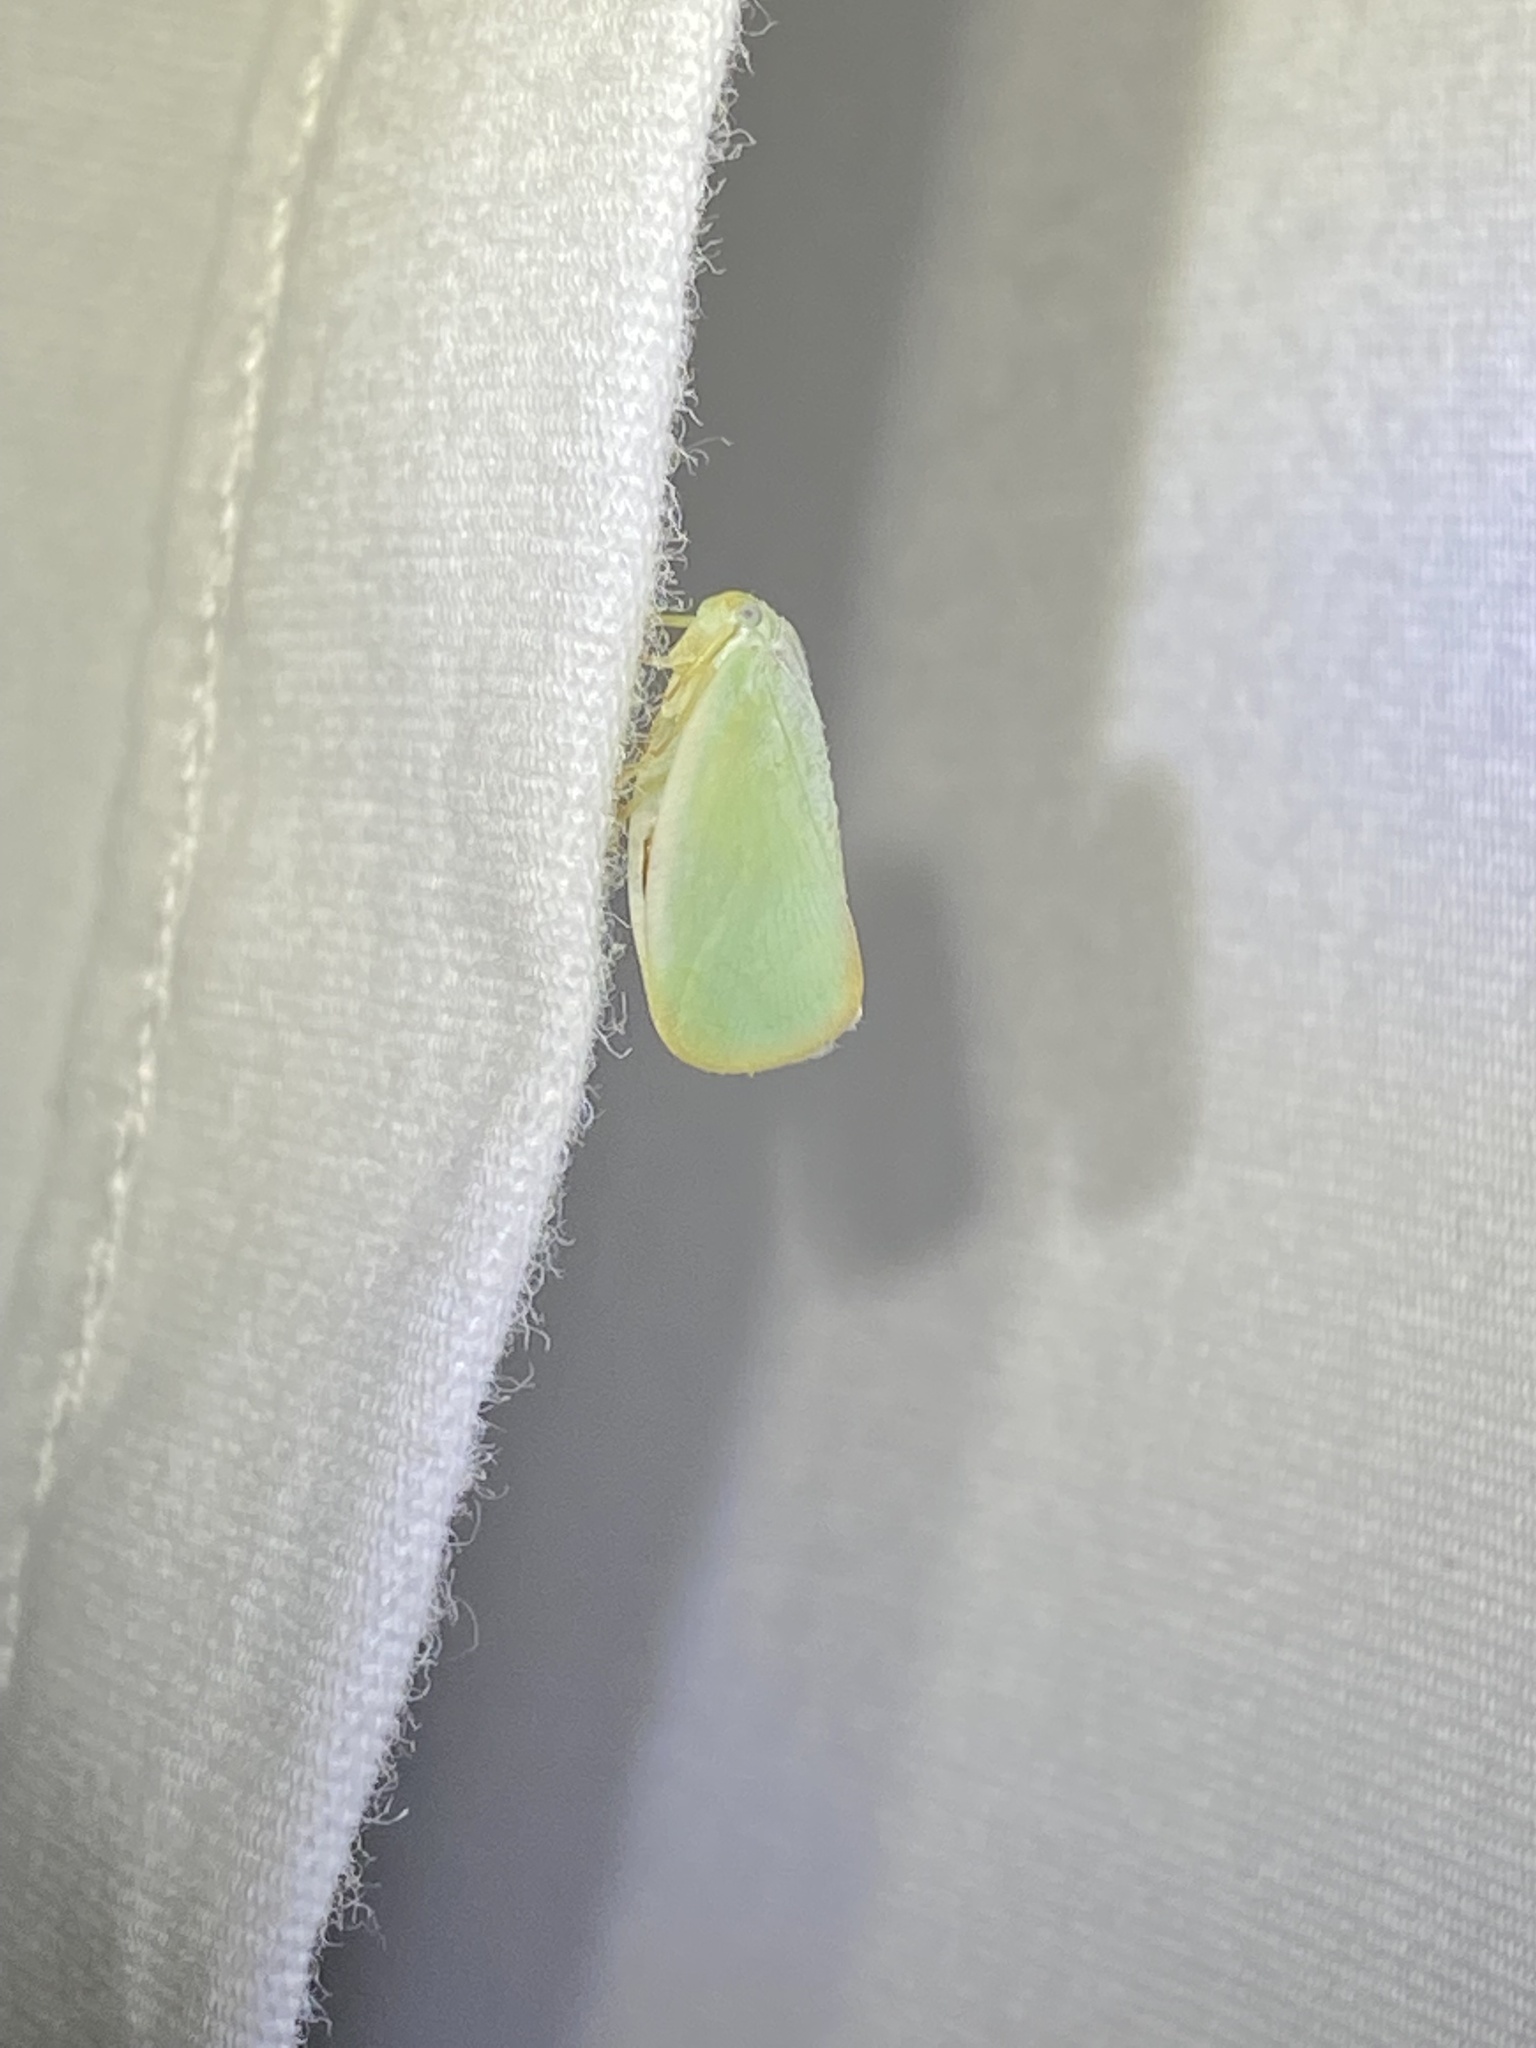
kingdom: Animalia
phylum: Arthropoda
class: Insecta
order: Hemiptera
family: Flatidae
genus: Ormenoides
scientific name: Ormenoides venusta
